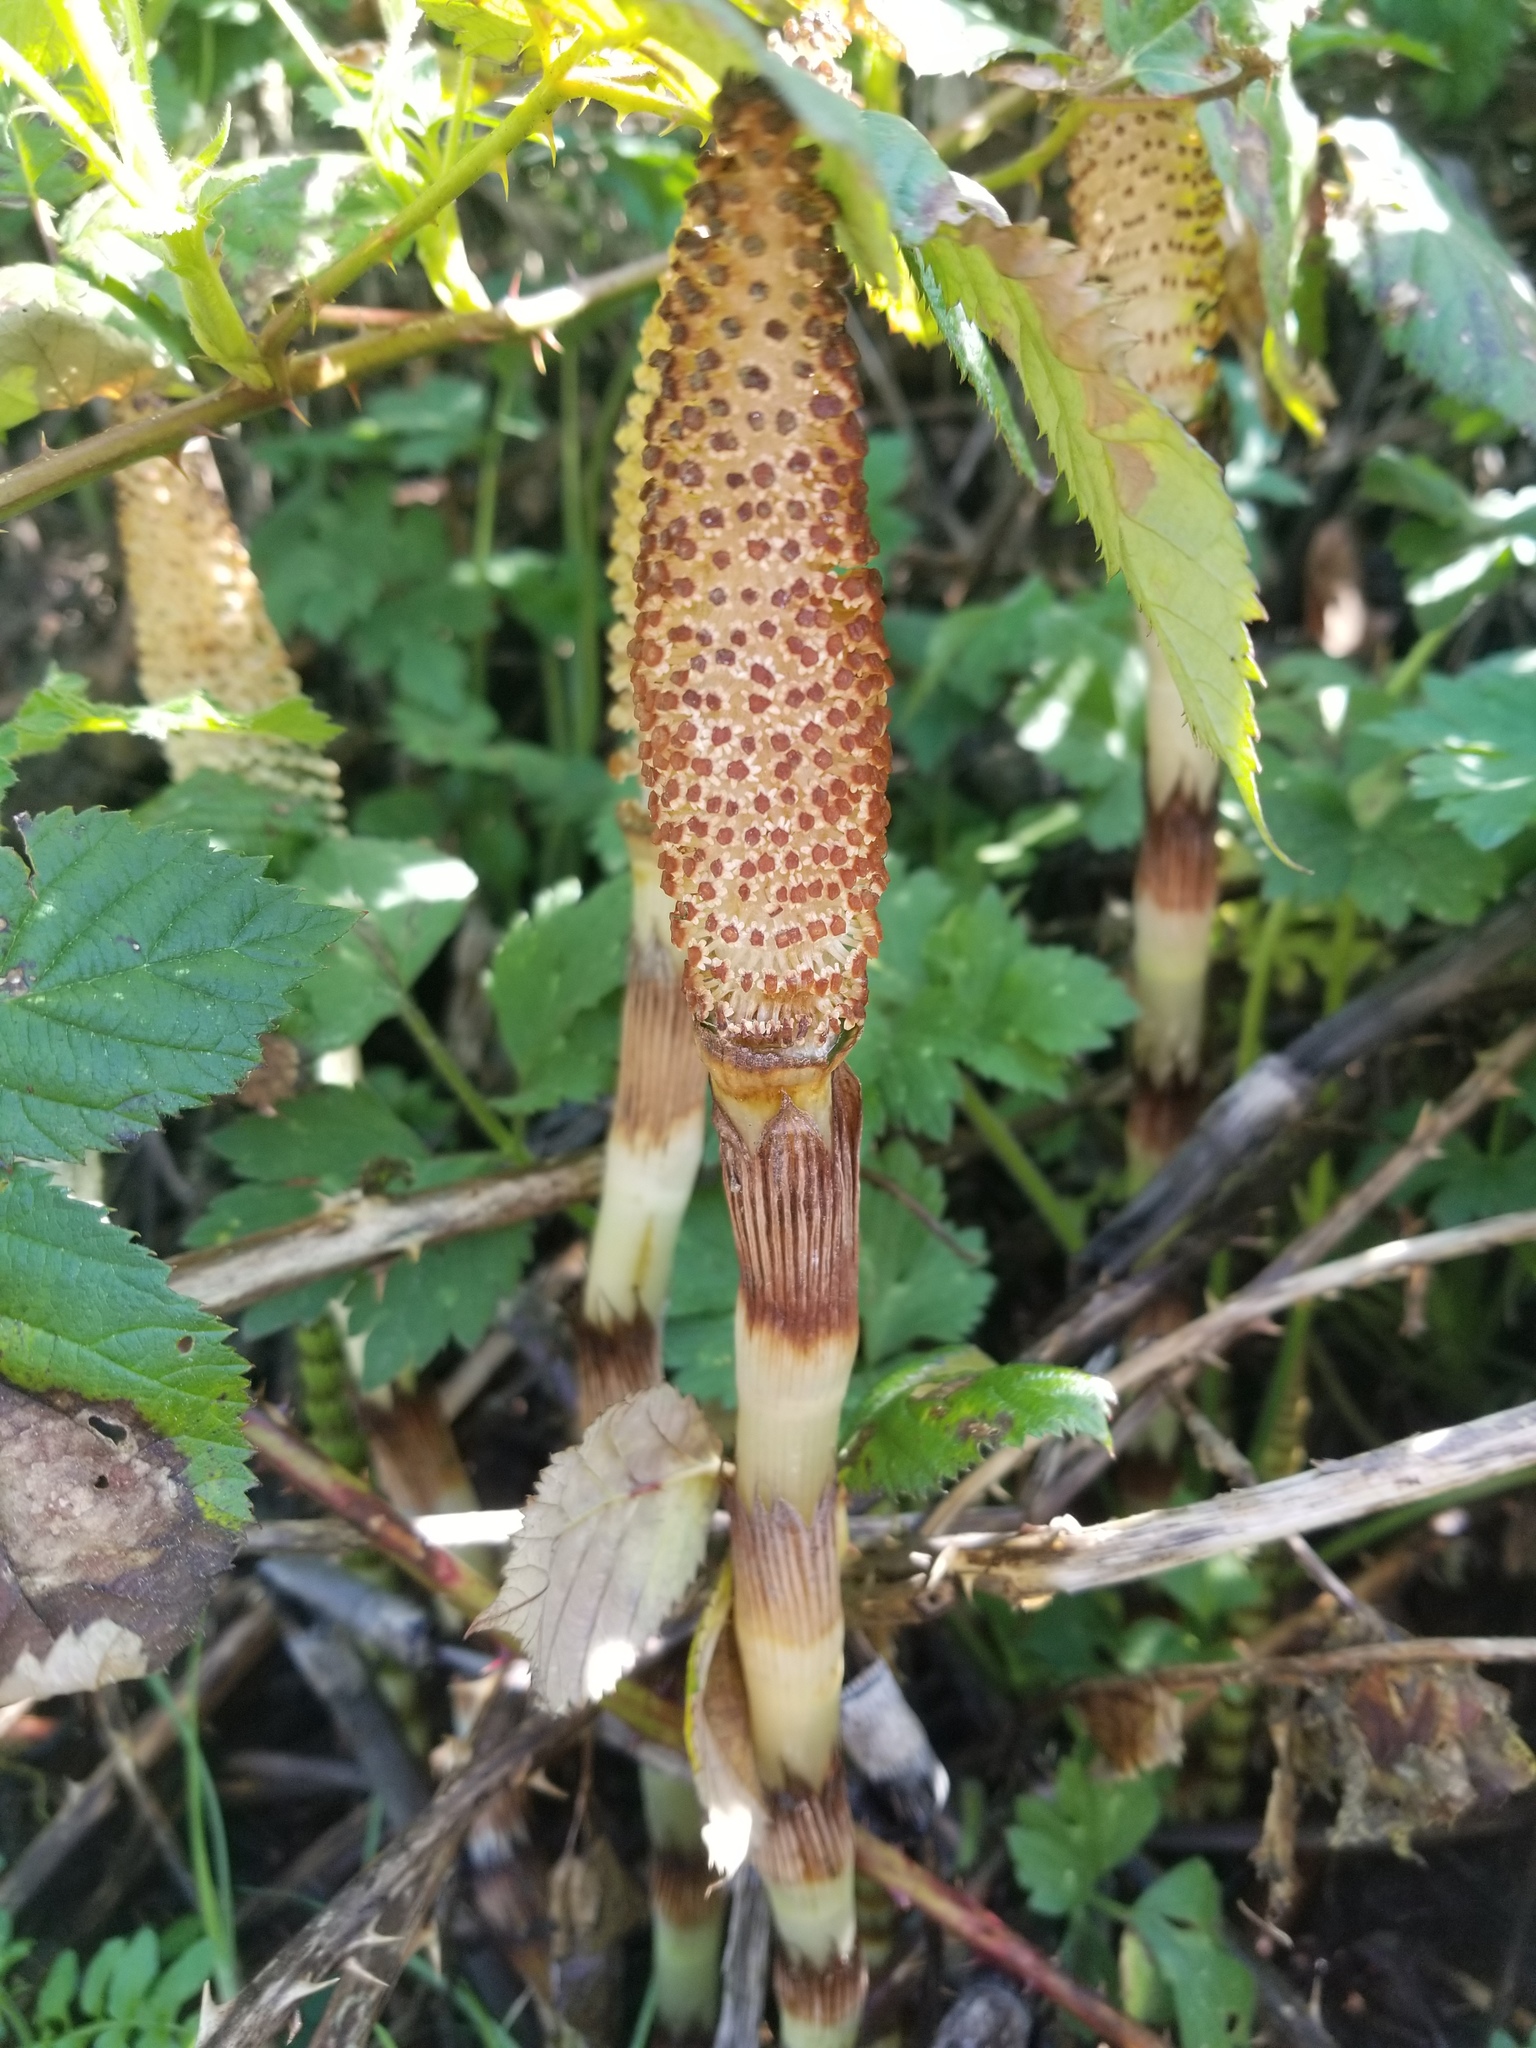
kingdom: Plantae
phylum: Tracheophyta
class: Polypodiopsida
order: Equisetales
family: Equisetaceae
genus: Equisetum
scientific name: Equisetum braunii
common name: Braun's horsetail
